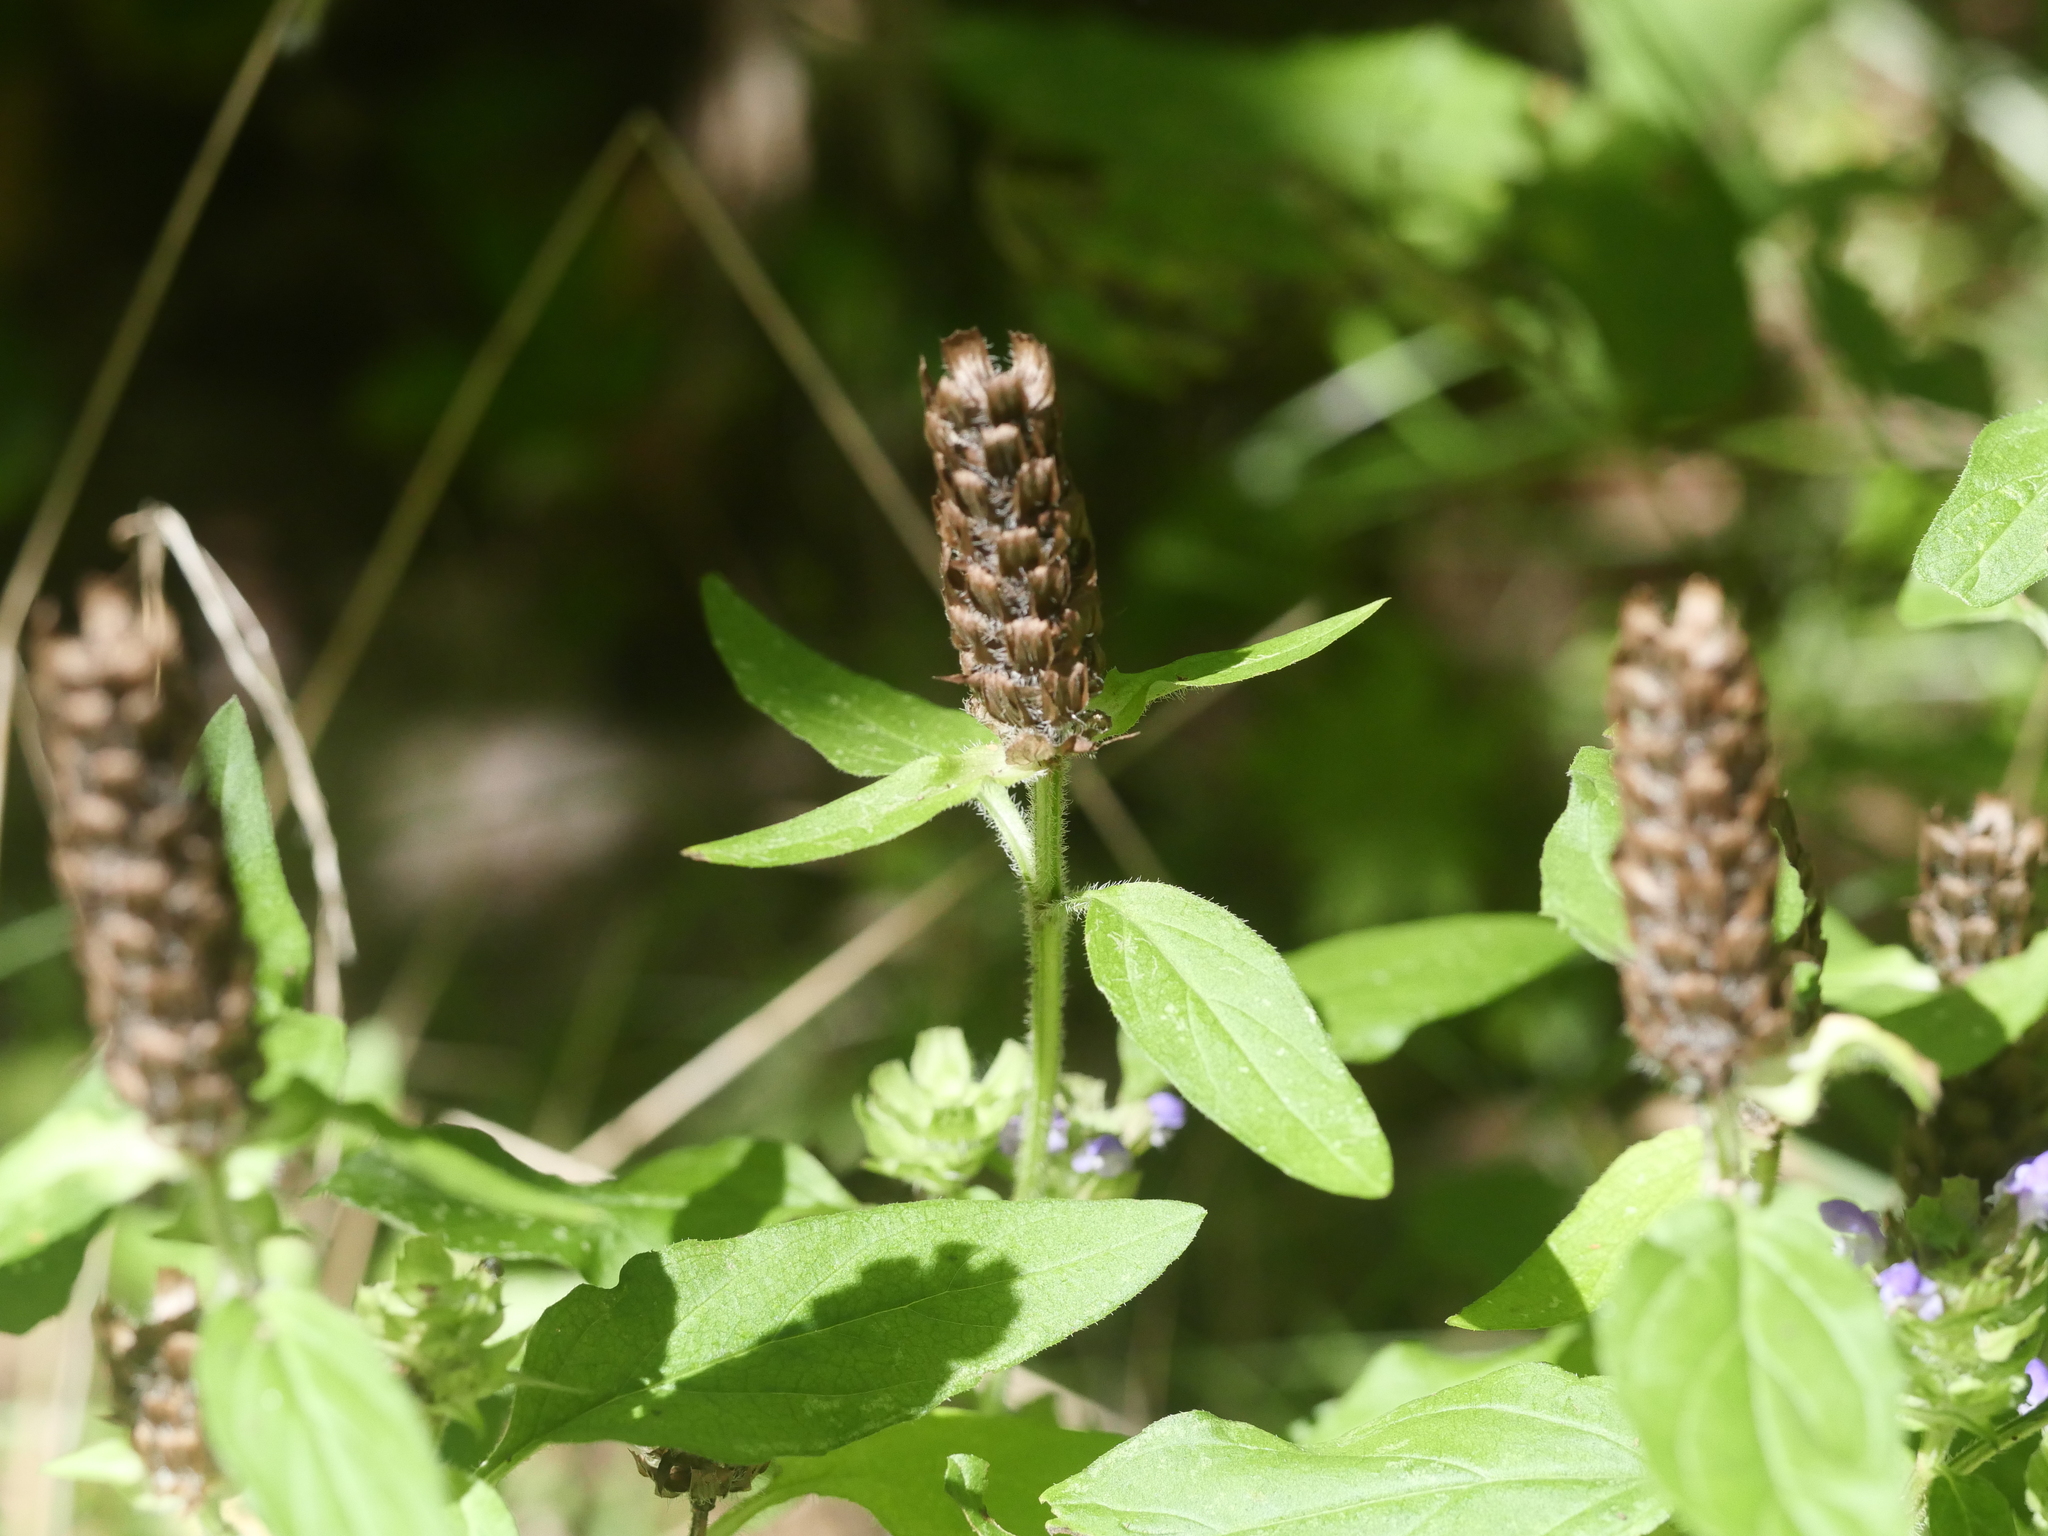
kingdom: Plantae
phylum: Tracheophyta
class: Magnoliopsida
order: Lamiales
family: Lamiaceae
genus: Prunella
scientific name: Prunella vulgaris
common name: Heal-all
